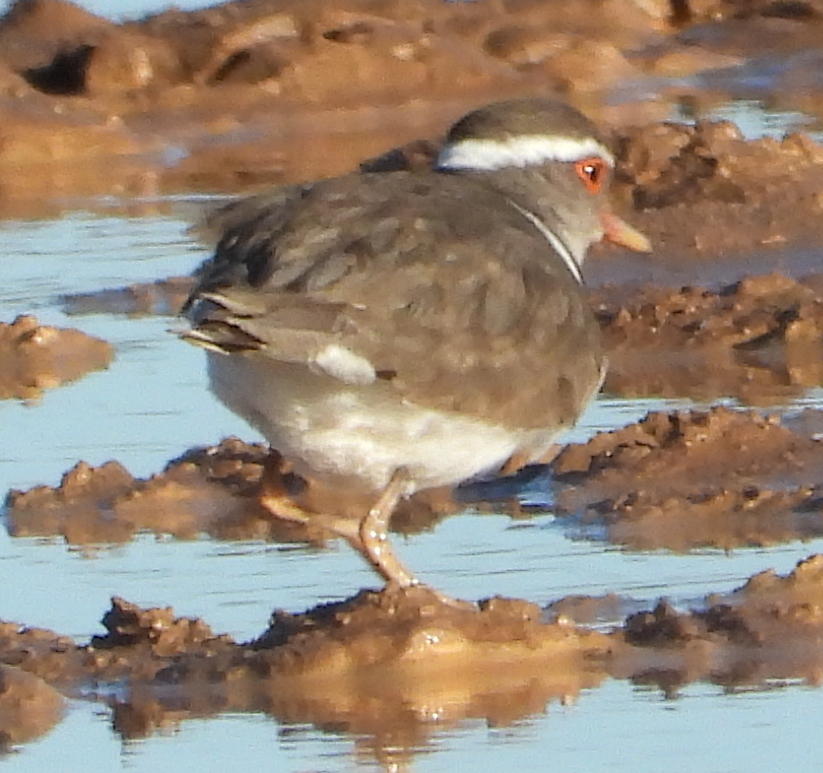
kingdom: Animalia
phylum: Chordata
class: Aves
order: Charadriiformes
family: Charadriidae
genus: Charadrius
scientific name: Charadrius tricollaris
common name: Three-banded plover
